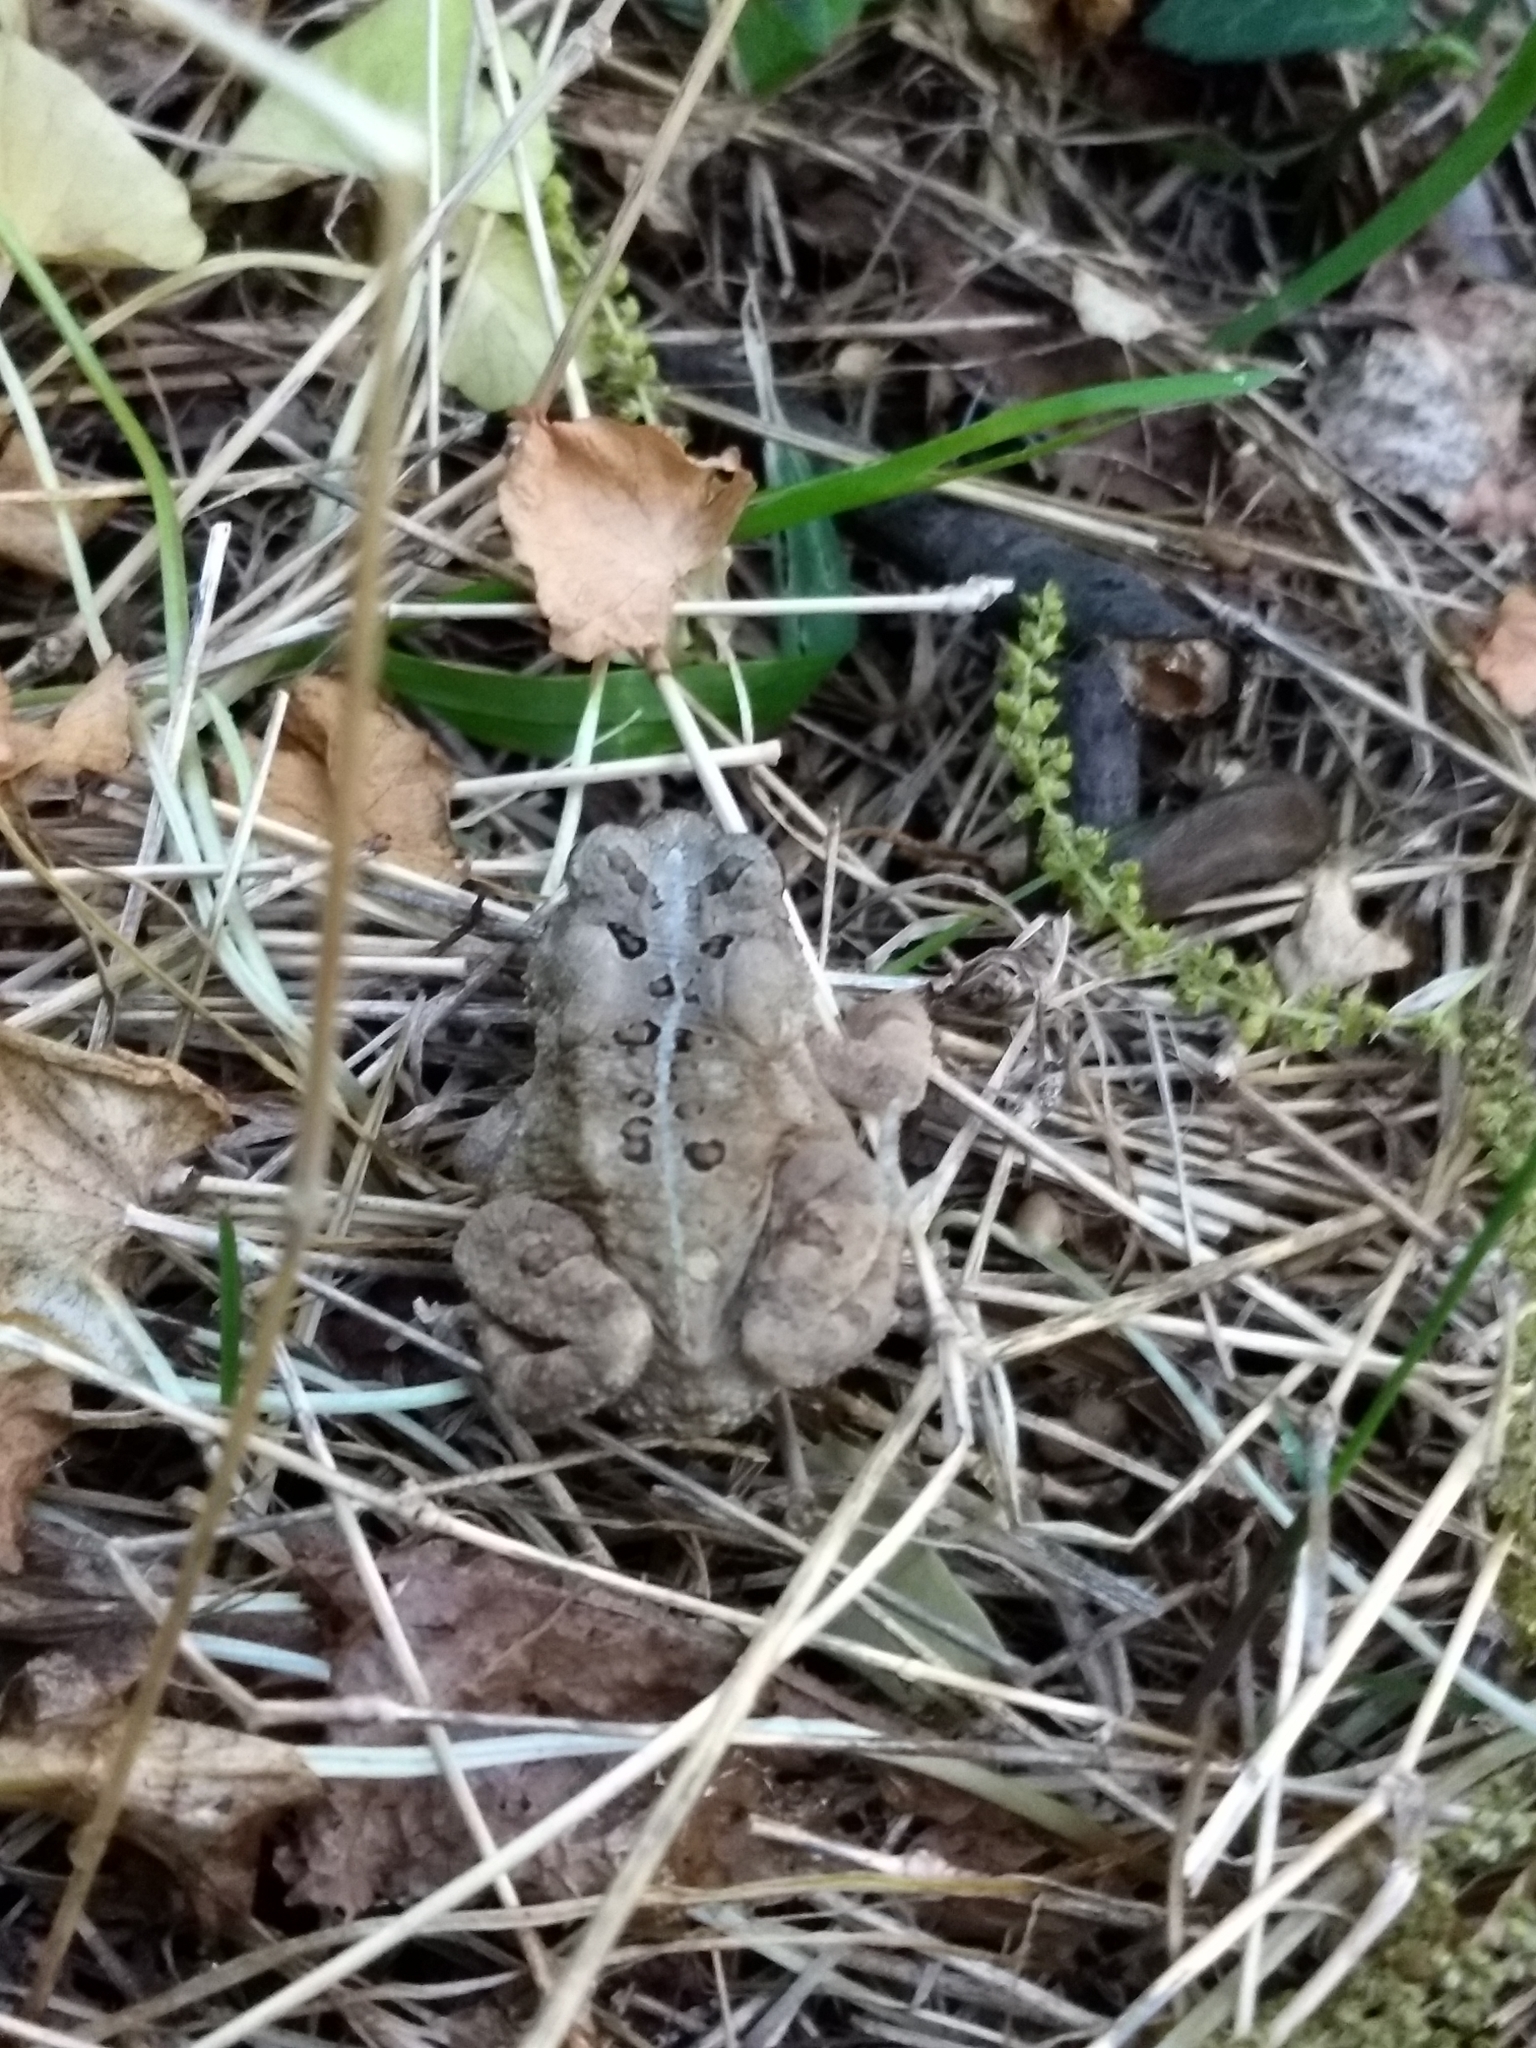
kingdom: Animalia
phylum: Chordata
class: Amphibia
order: Anura
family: Bufonidae
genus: Anaxyrus
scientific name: Anaxyrus americanus
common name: American toad
